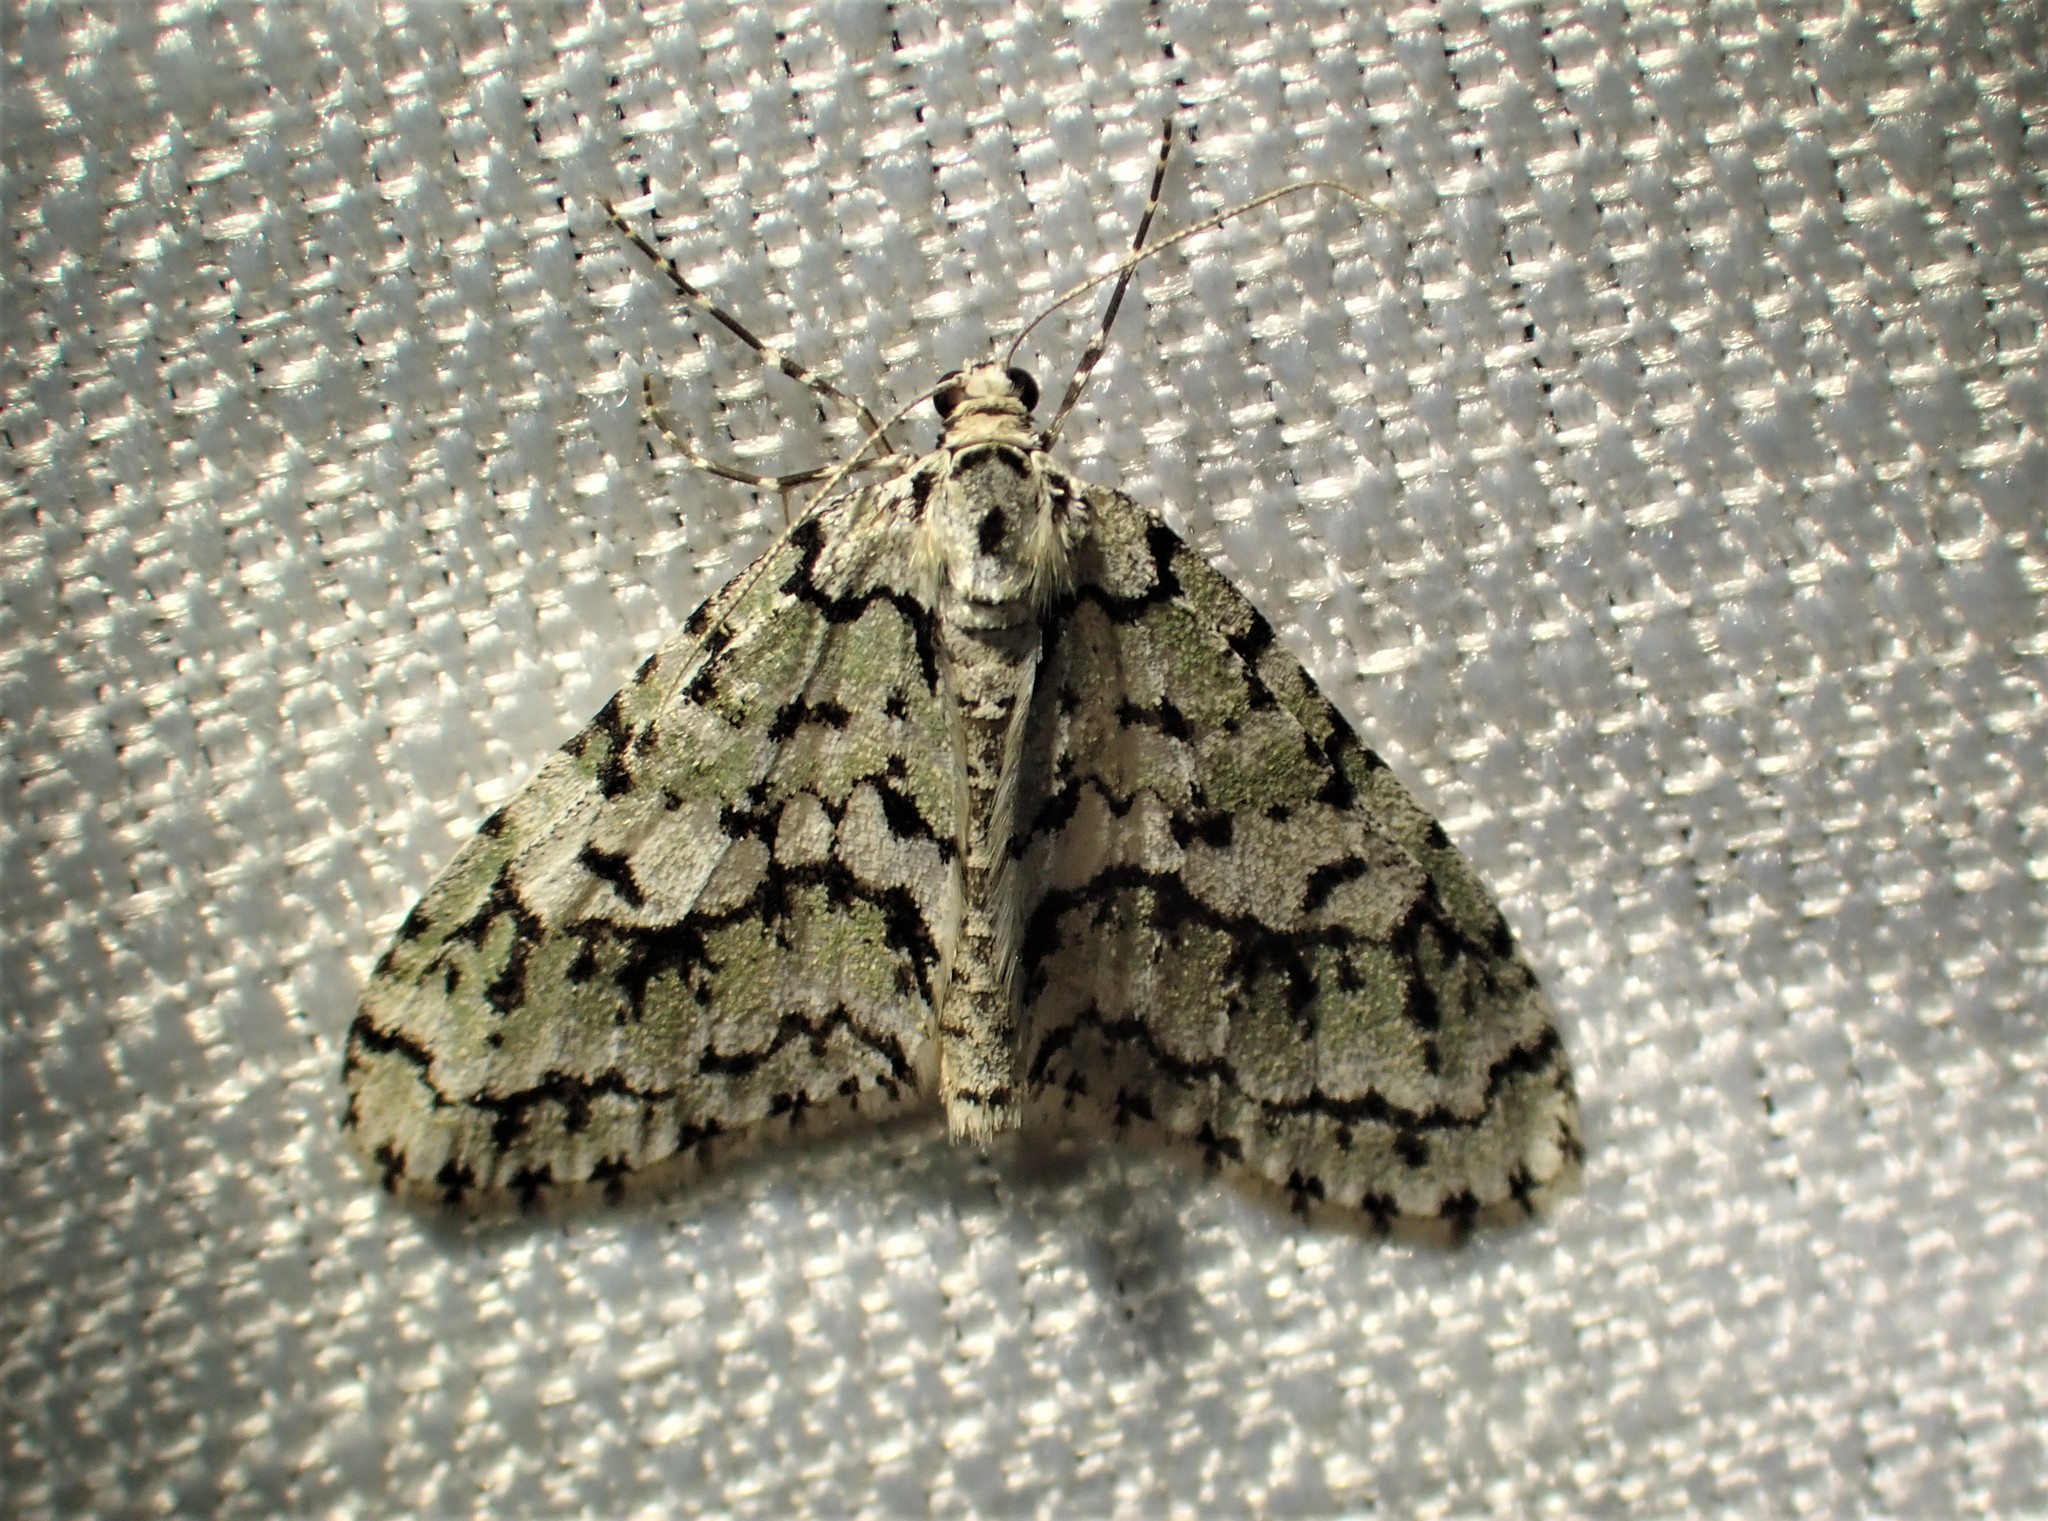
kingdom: Animalia
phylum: Arthropoda
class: Insecta
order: Lepidoptera
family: Geometridae
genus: Cladara
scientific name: Cladara atroliturata
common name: Scribbler
